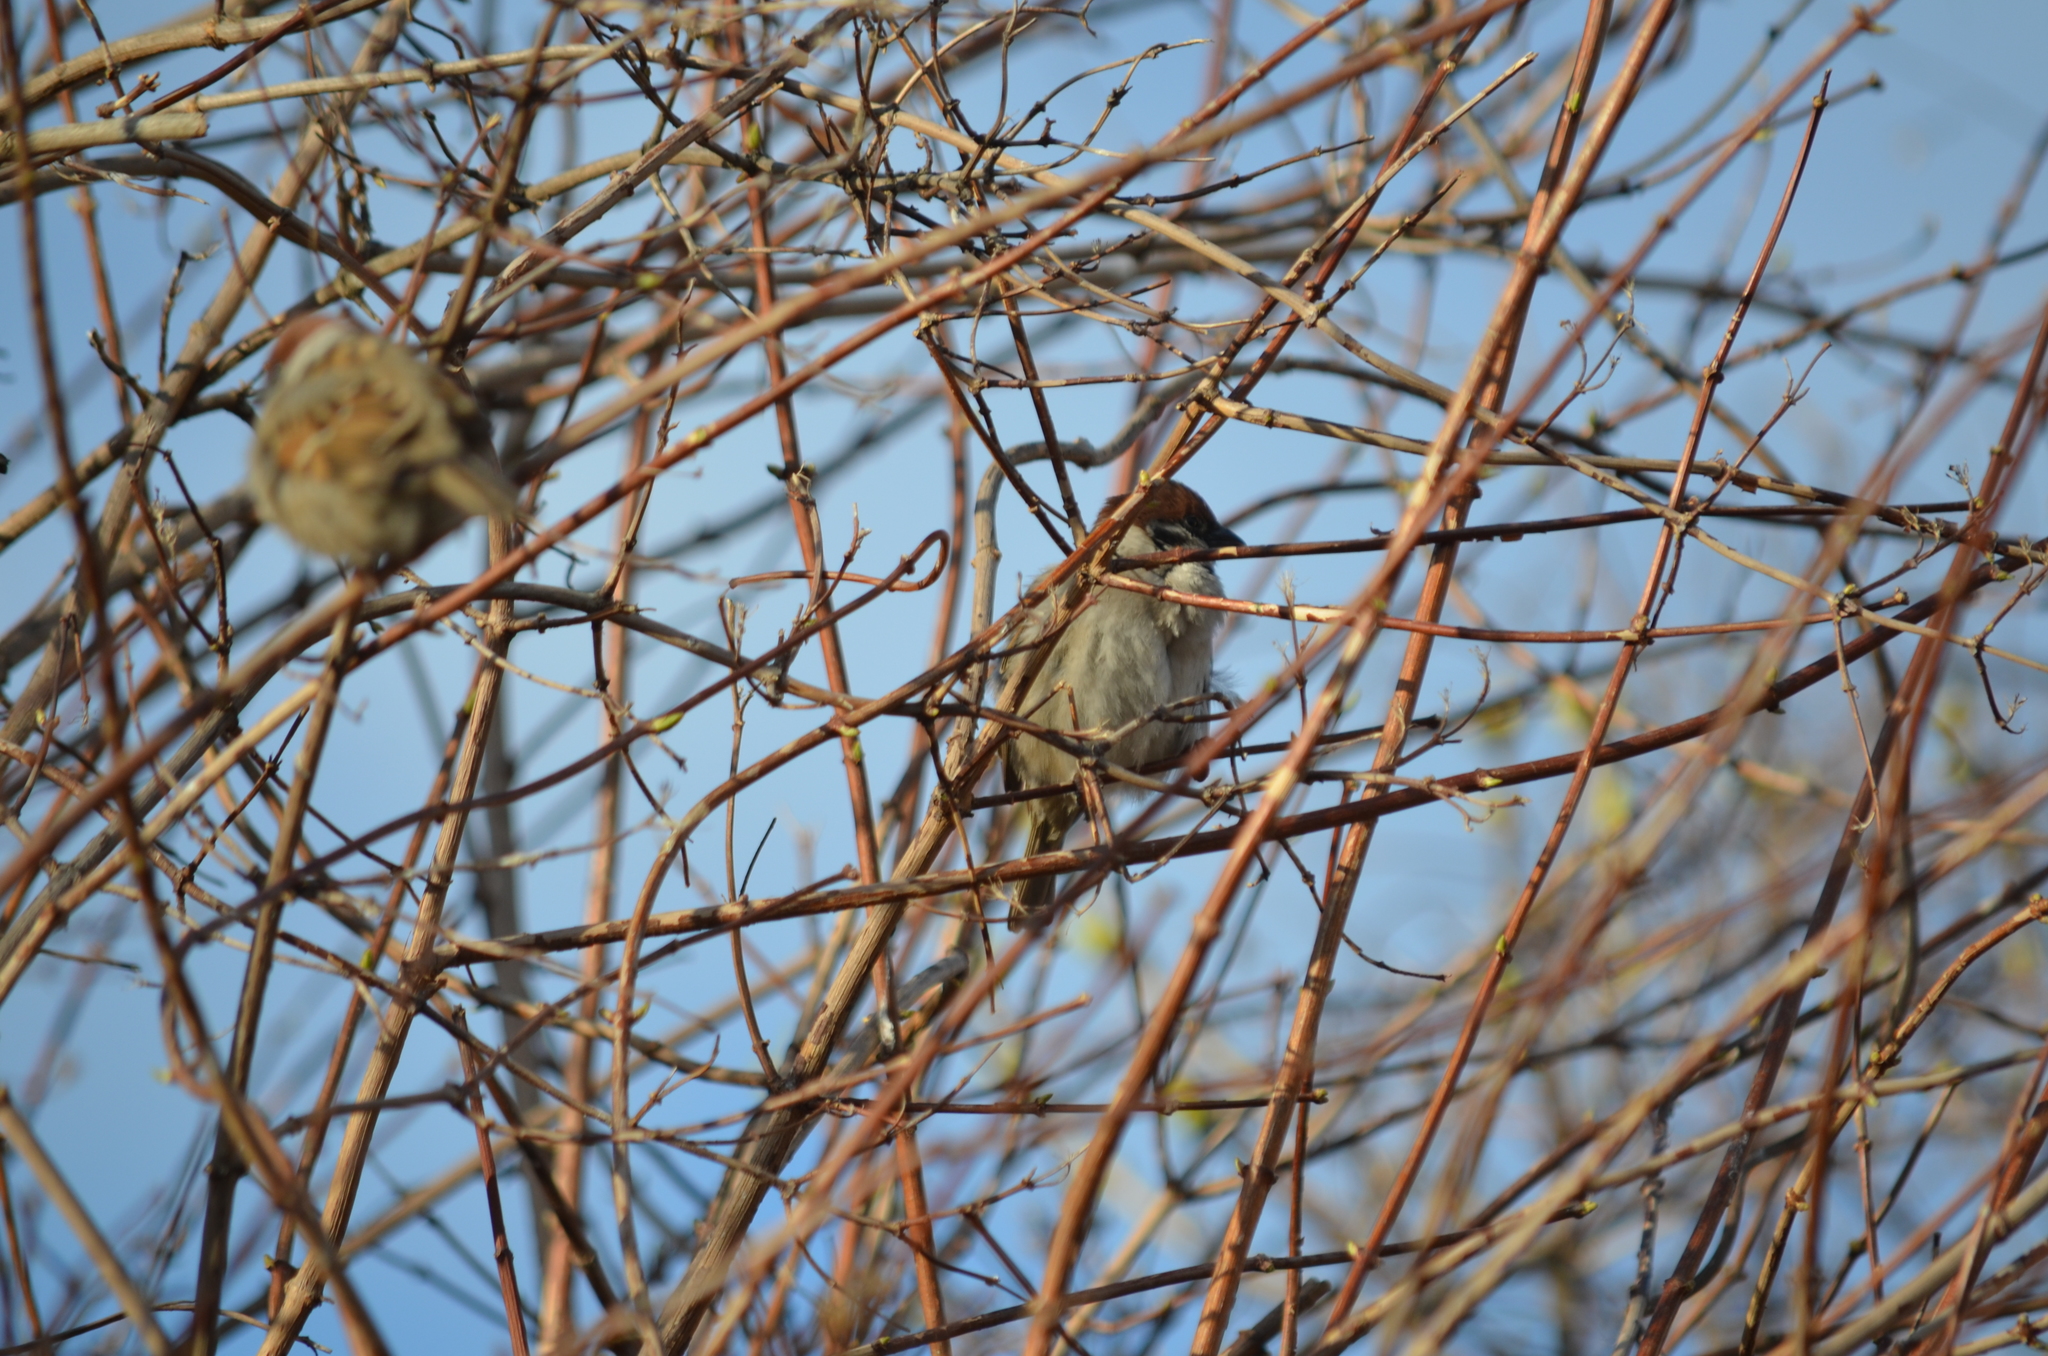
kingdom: Animalia
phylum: Chordata
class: Aves
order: Passeriformes
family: Passeridae
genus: Passer
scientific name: Passer montanus
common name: Eurasian tree sparrow
